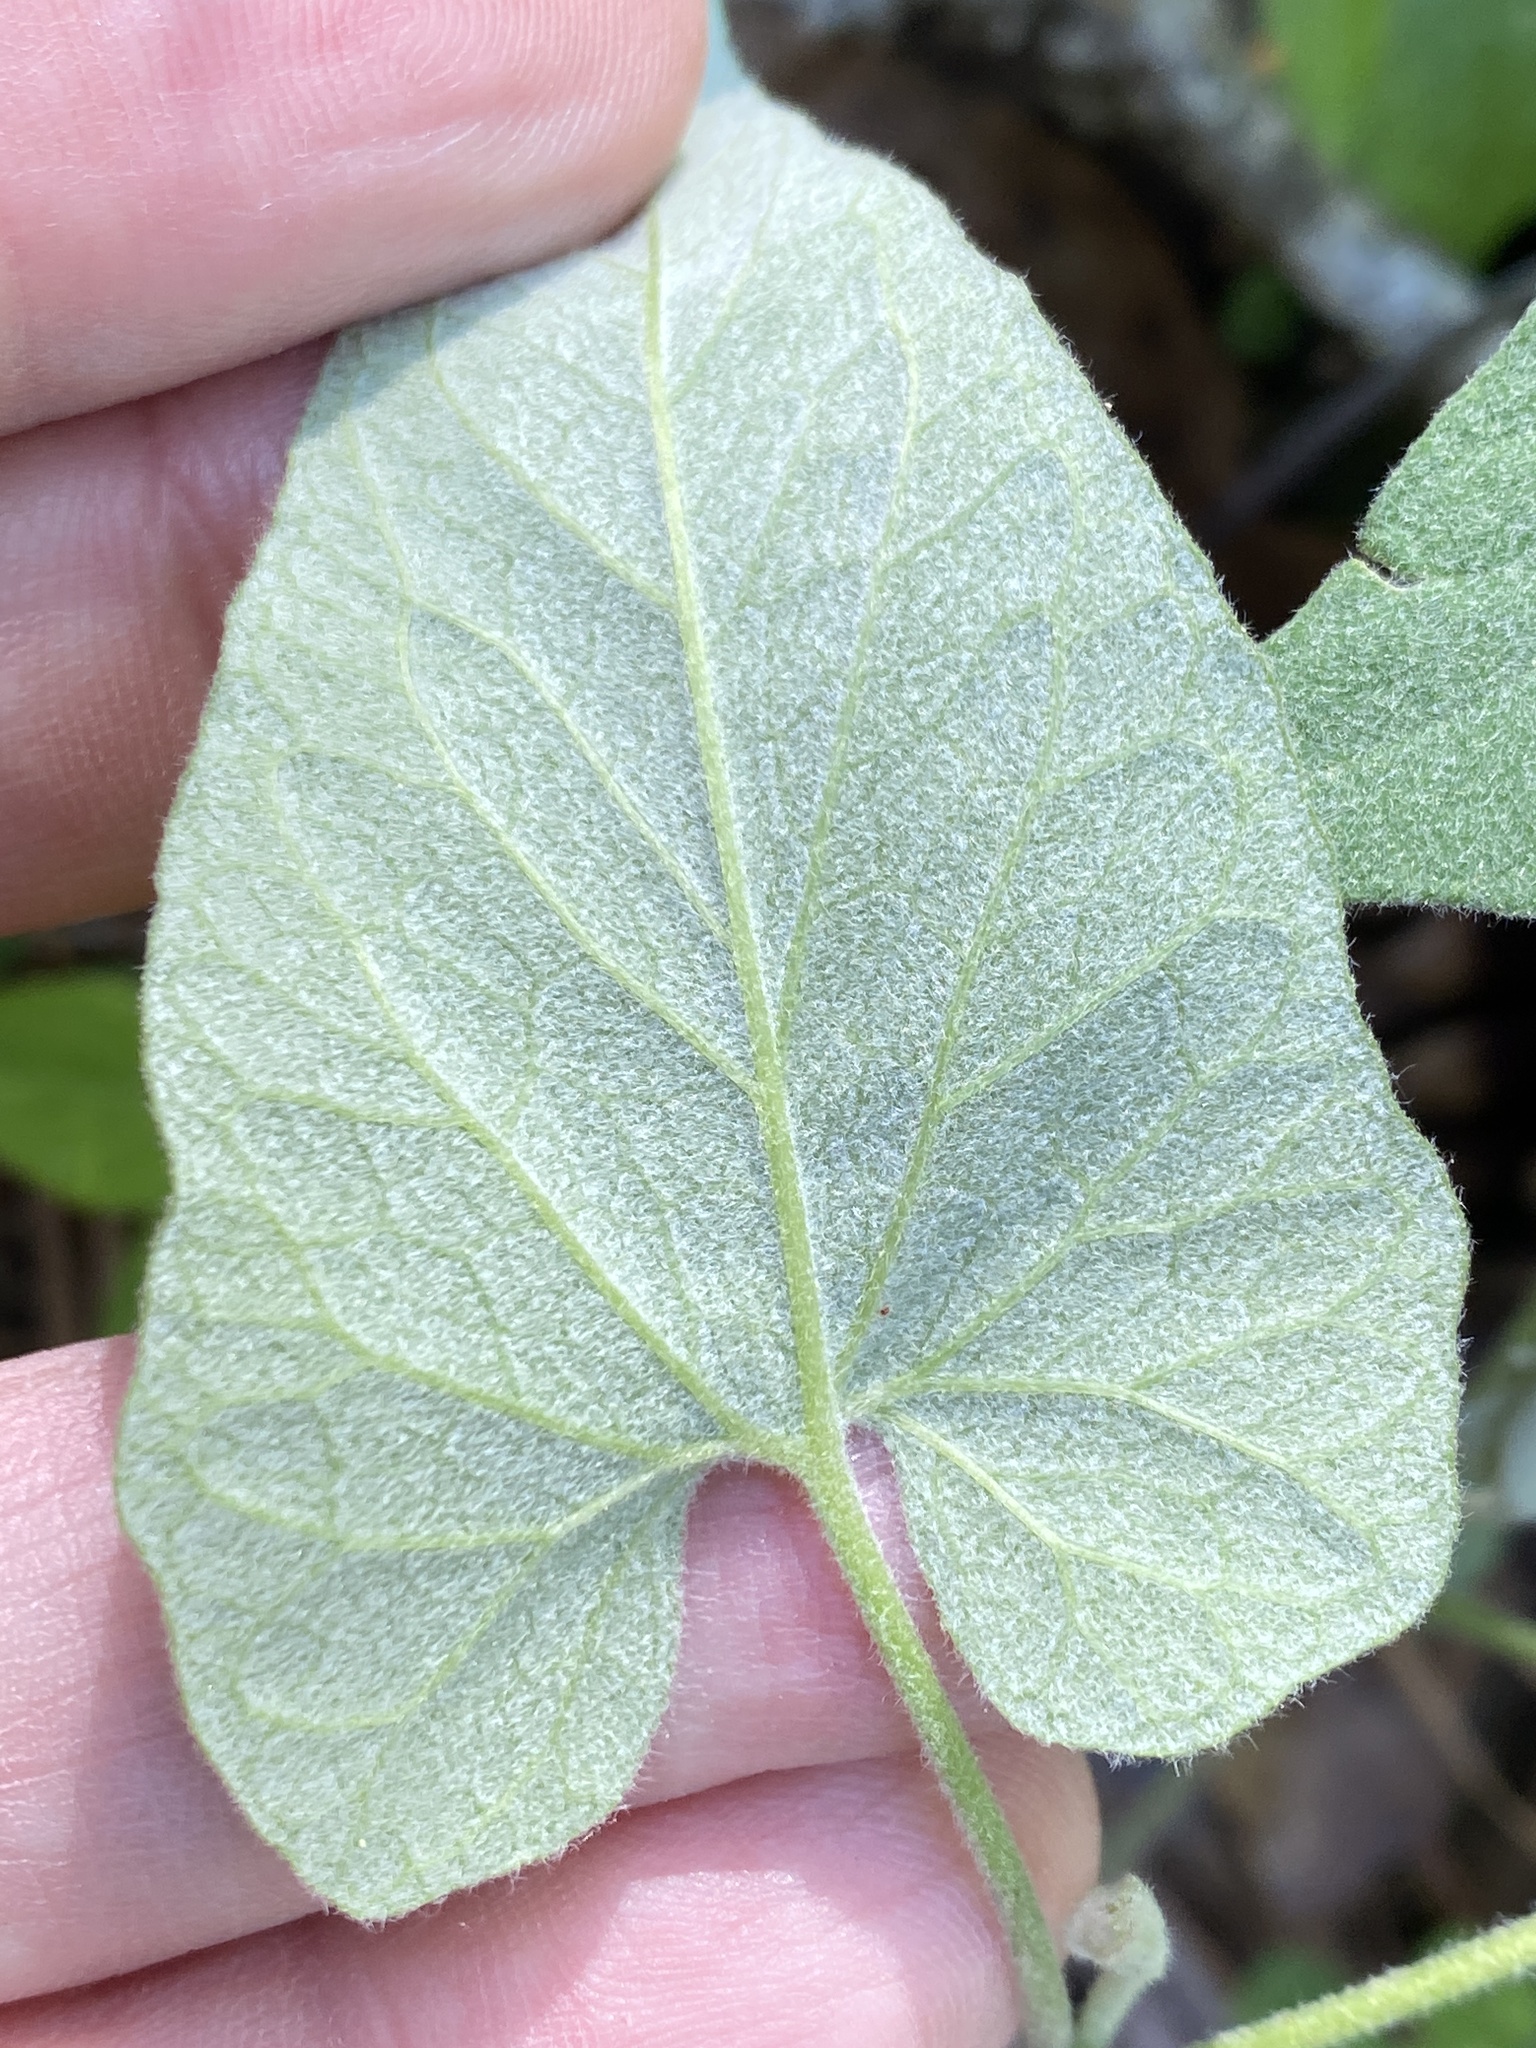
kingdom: Plantae
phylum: Tracheophyta
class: Magnoliopsida
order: Solanales
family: Convolvulaceae
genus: Calystegia
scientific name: Calystegia catesbeiana
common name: Catesby's false bindweed
